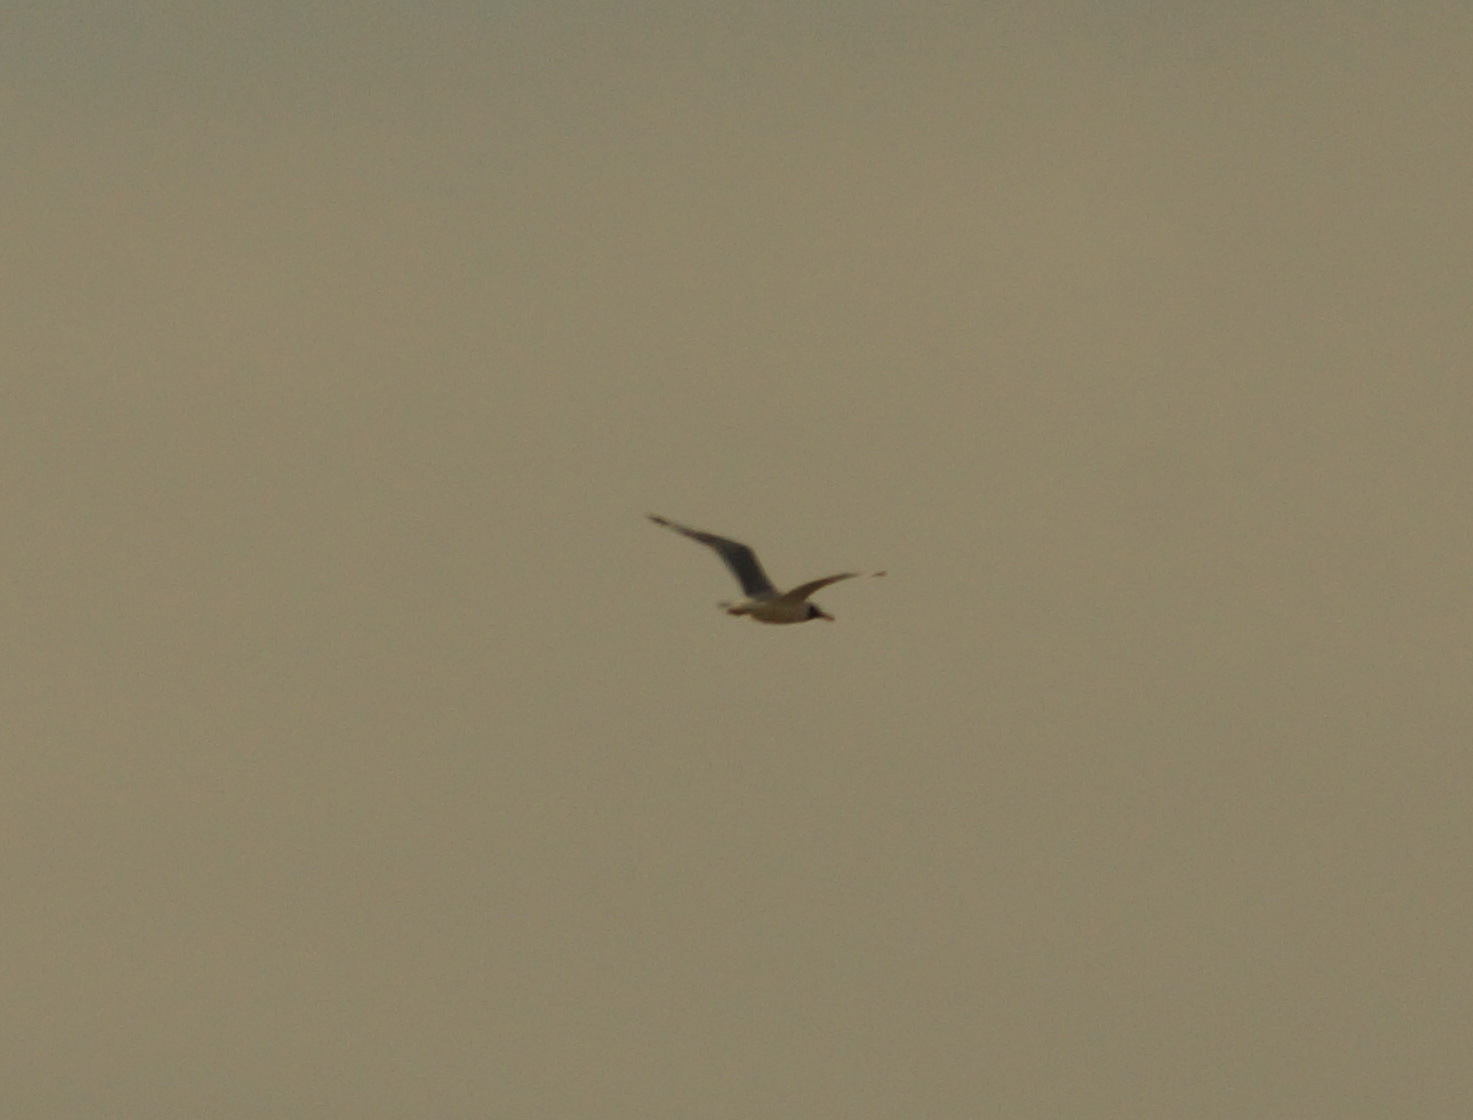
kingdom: Animalia
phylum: Chordata
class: Aves
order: Charadriiformes
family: Laridae
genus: Ichthyaetus
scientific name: Ichthyaetus ichthyaetus
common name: Pallas's gull
